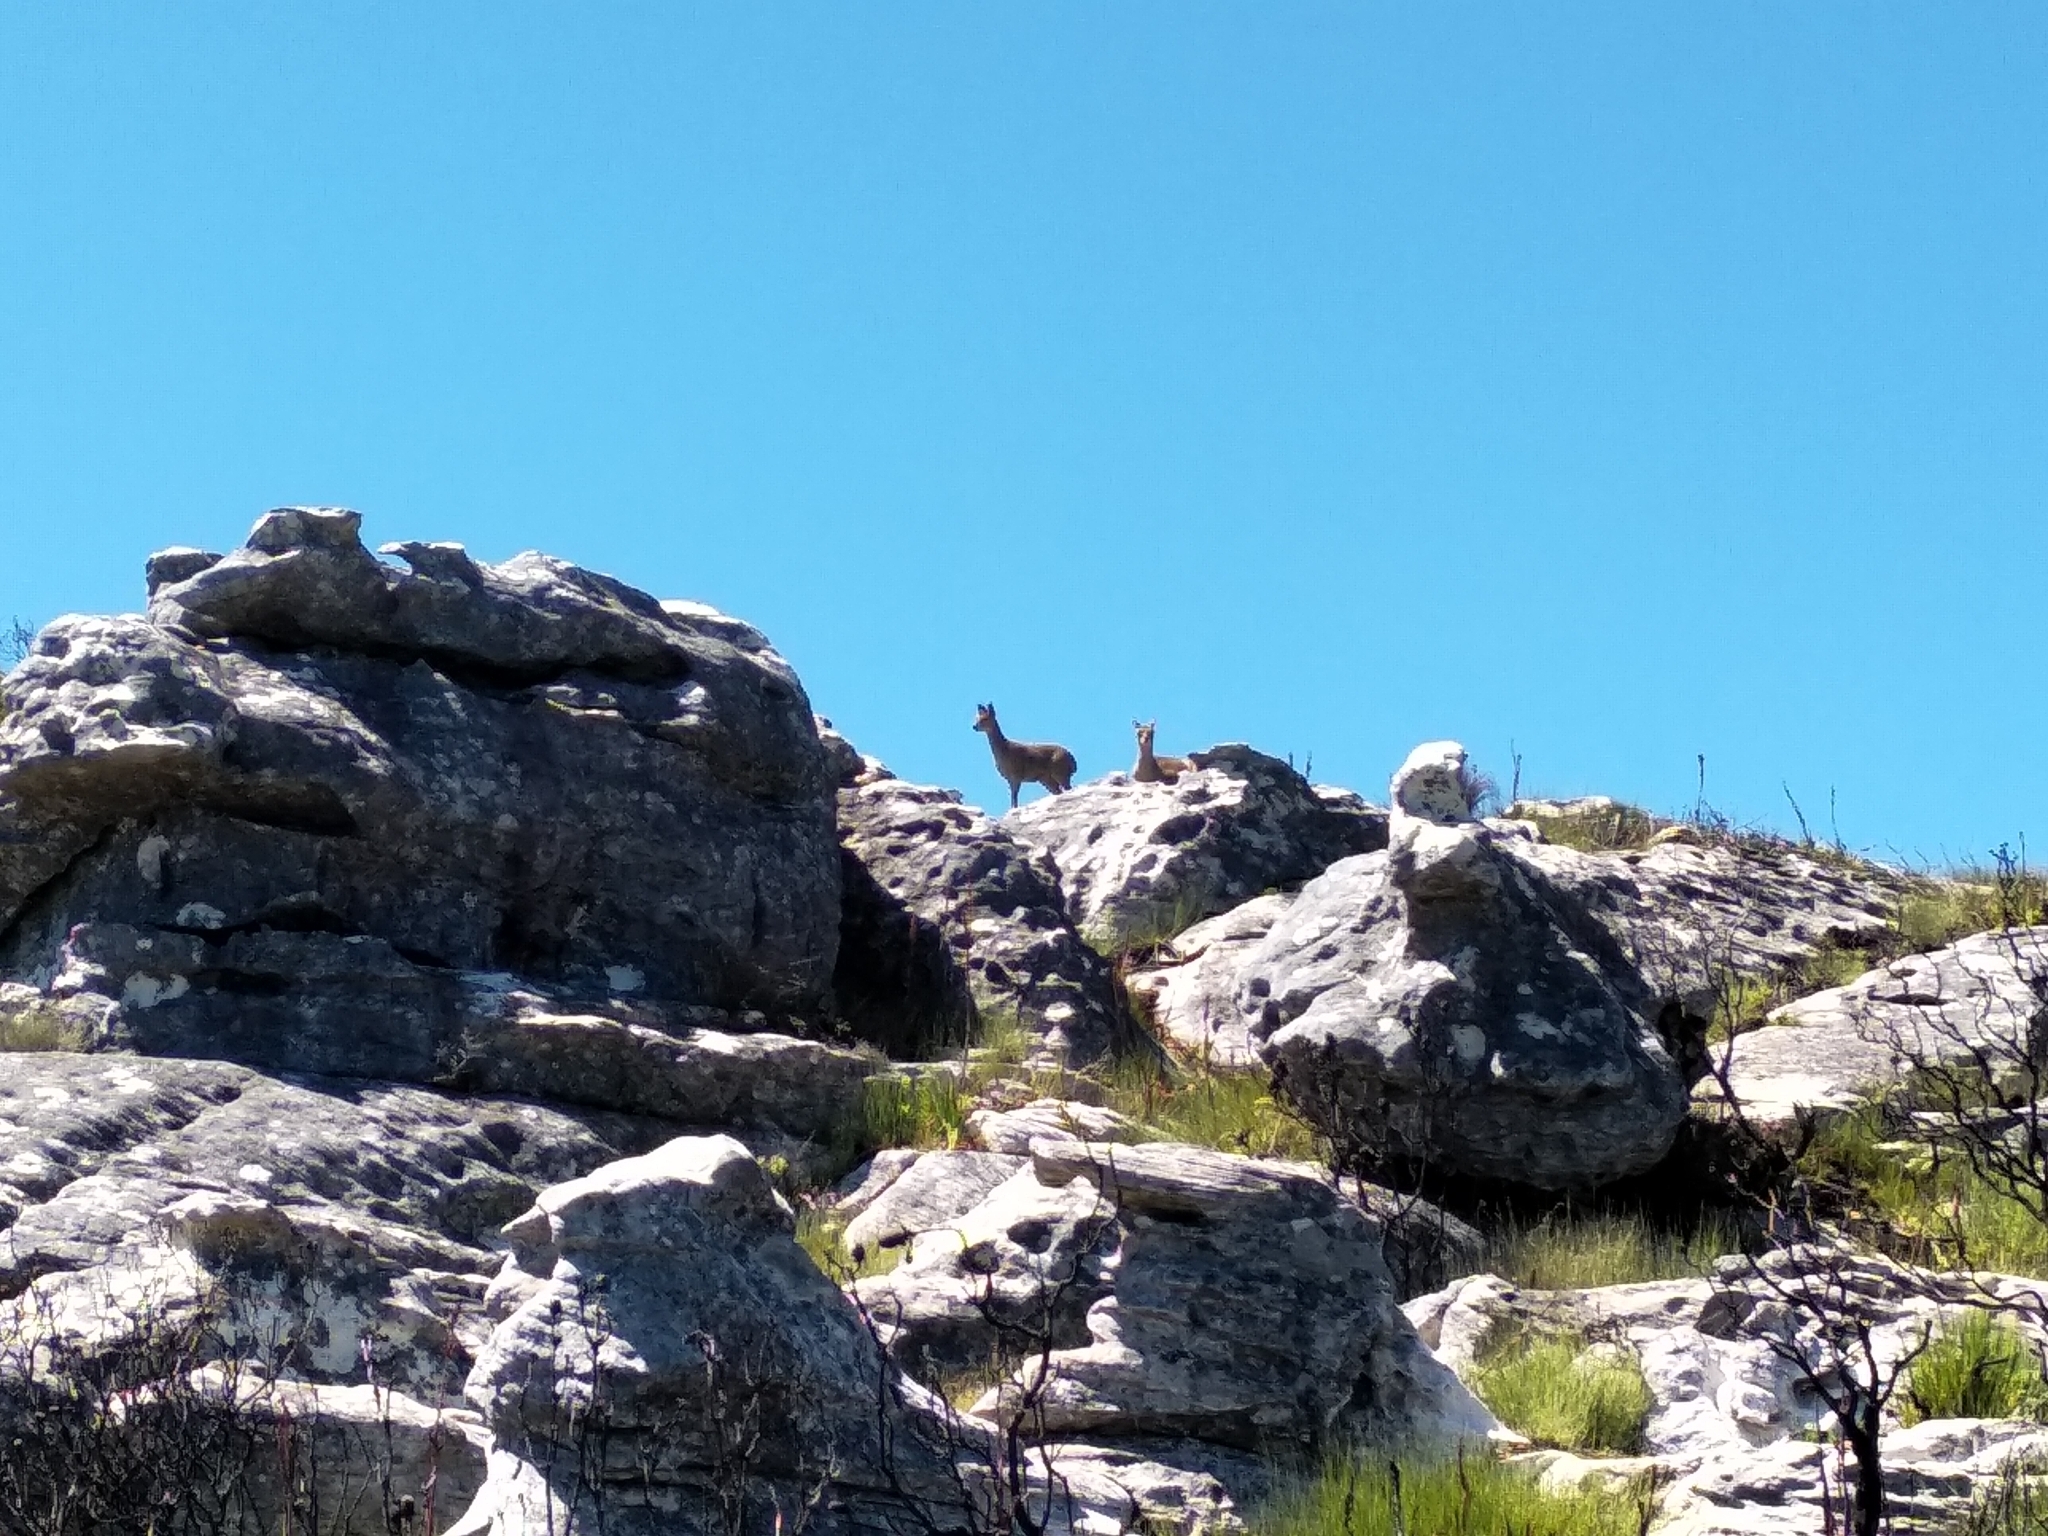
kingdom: Animalia
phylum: Chordata
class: Mammalia
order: Artiodactyla
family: Bovidae
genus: Oreotragus
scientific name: Oreotragus oreotragus
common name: Klipspringer
